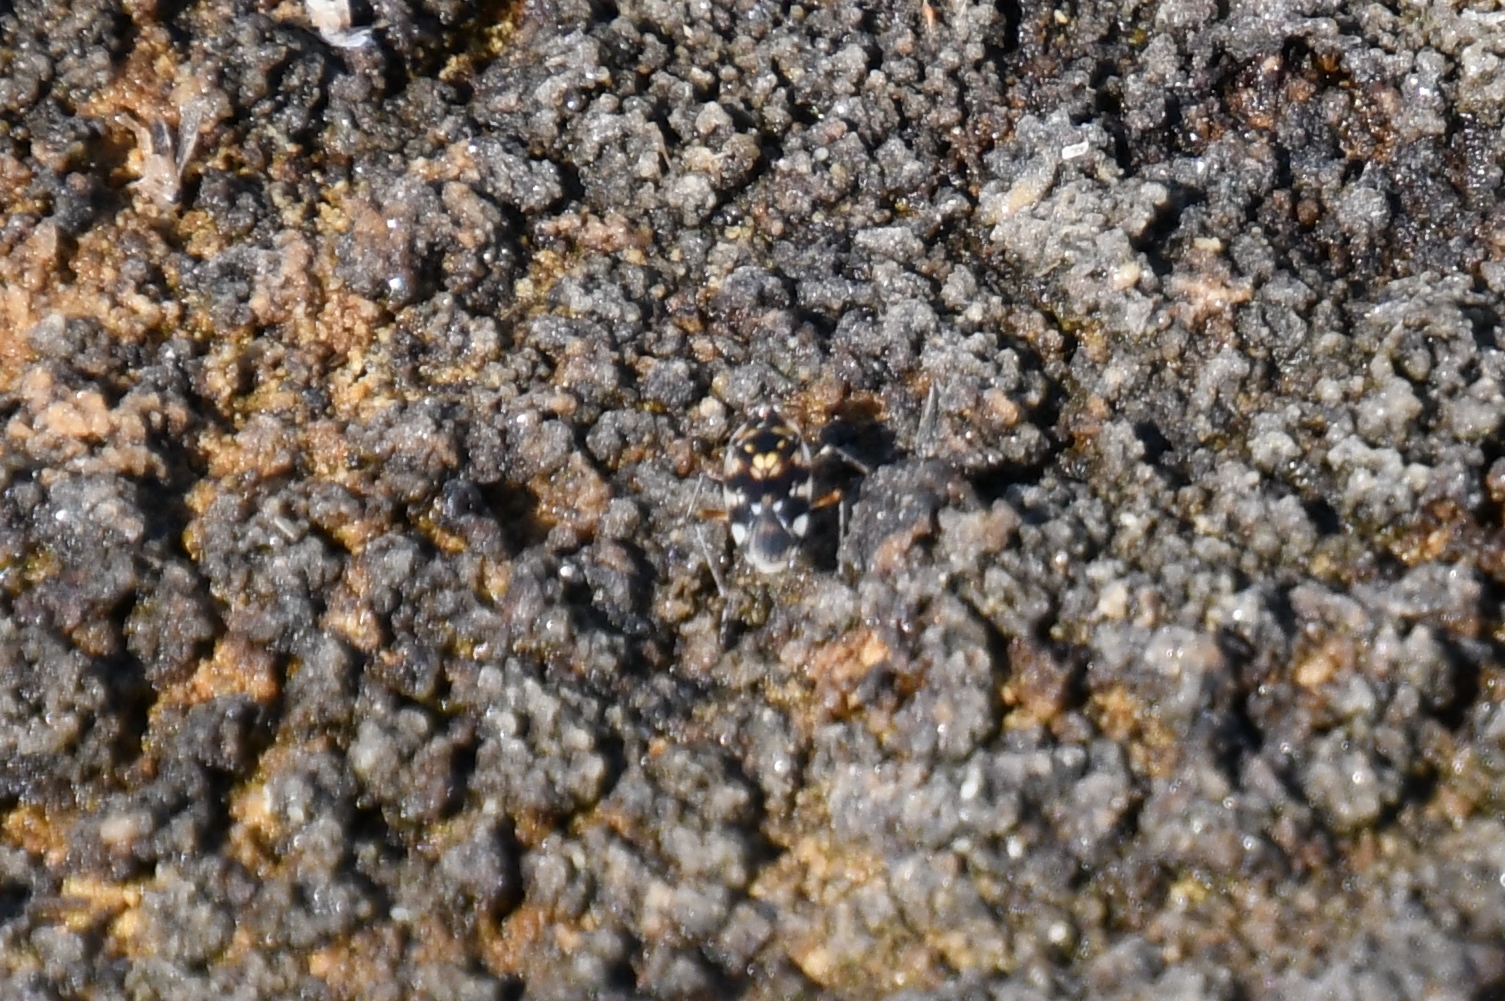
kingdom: Animalia
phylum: Arthropoda
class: Insecta
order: Hemiptera
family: Saldidae
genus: Pentacora
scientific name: Pentacora signoreti
